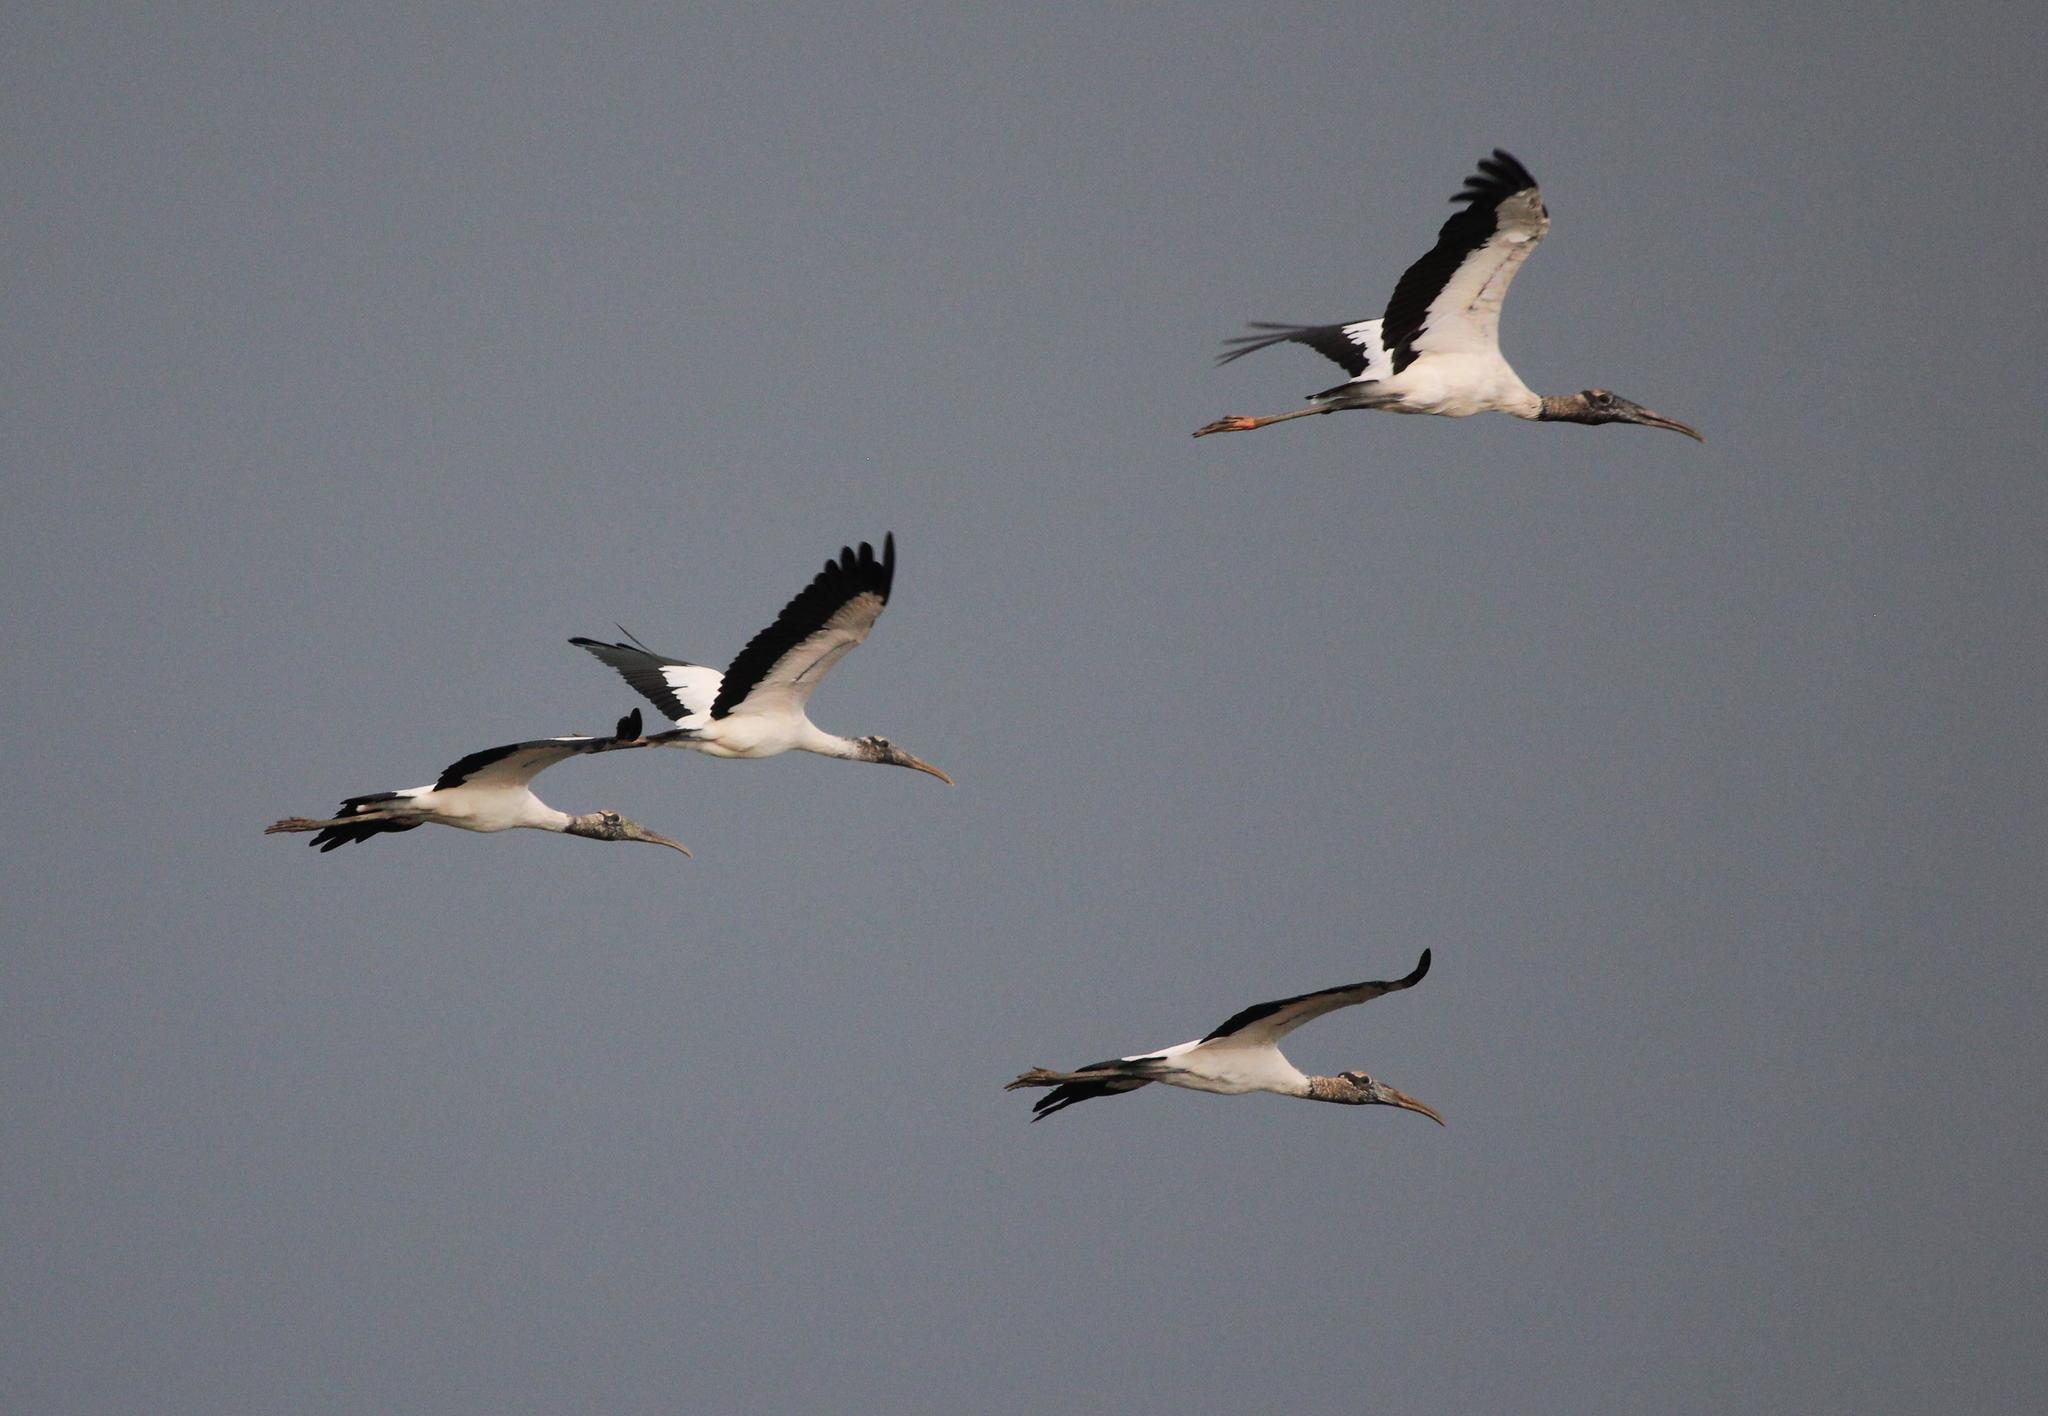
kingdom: Animalia
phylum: Chordata
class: Aves
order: Ciconiiformes
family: Ciconiidae
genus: Mycteria
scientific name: Mycteria americana
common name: Wood stork
